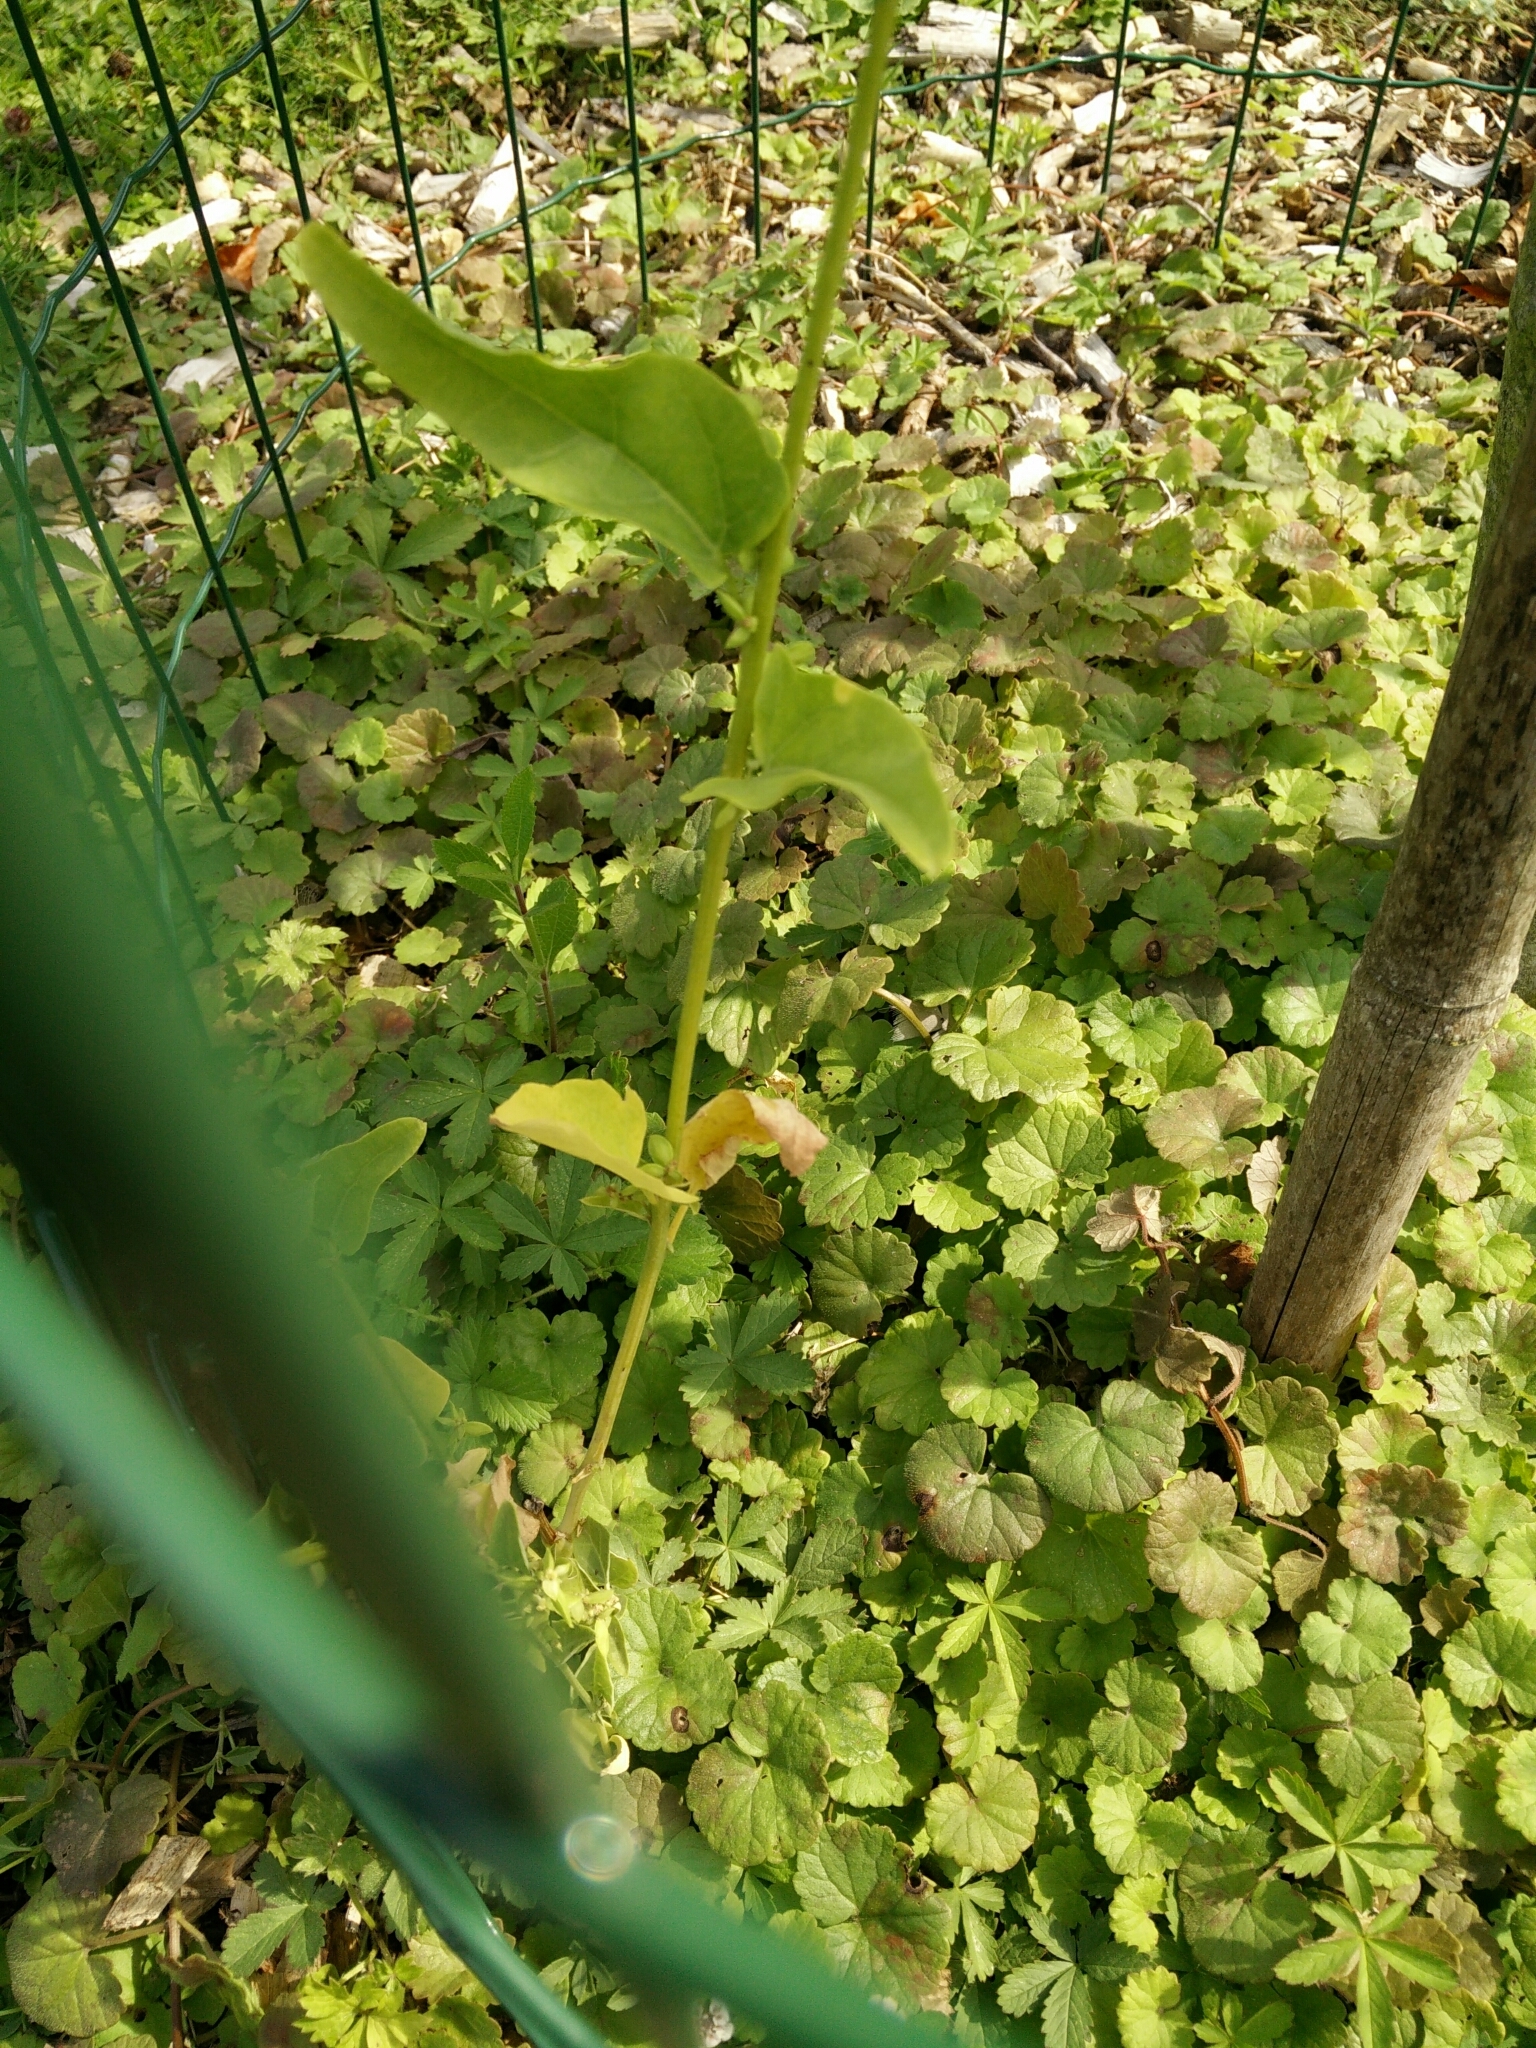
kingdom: Plantae
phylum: Tracheophyta
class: Magnoliopsida
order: Caryophyllales
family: Amaranthaceae
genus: Atriplex
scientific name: Atriplex hortensis
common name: Garden orache
